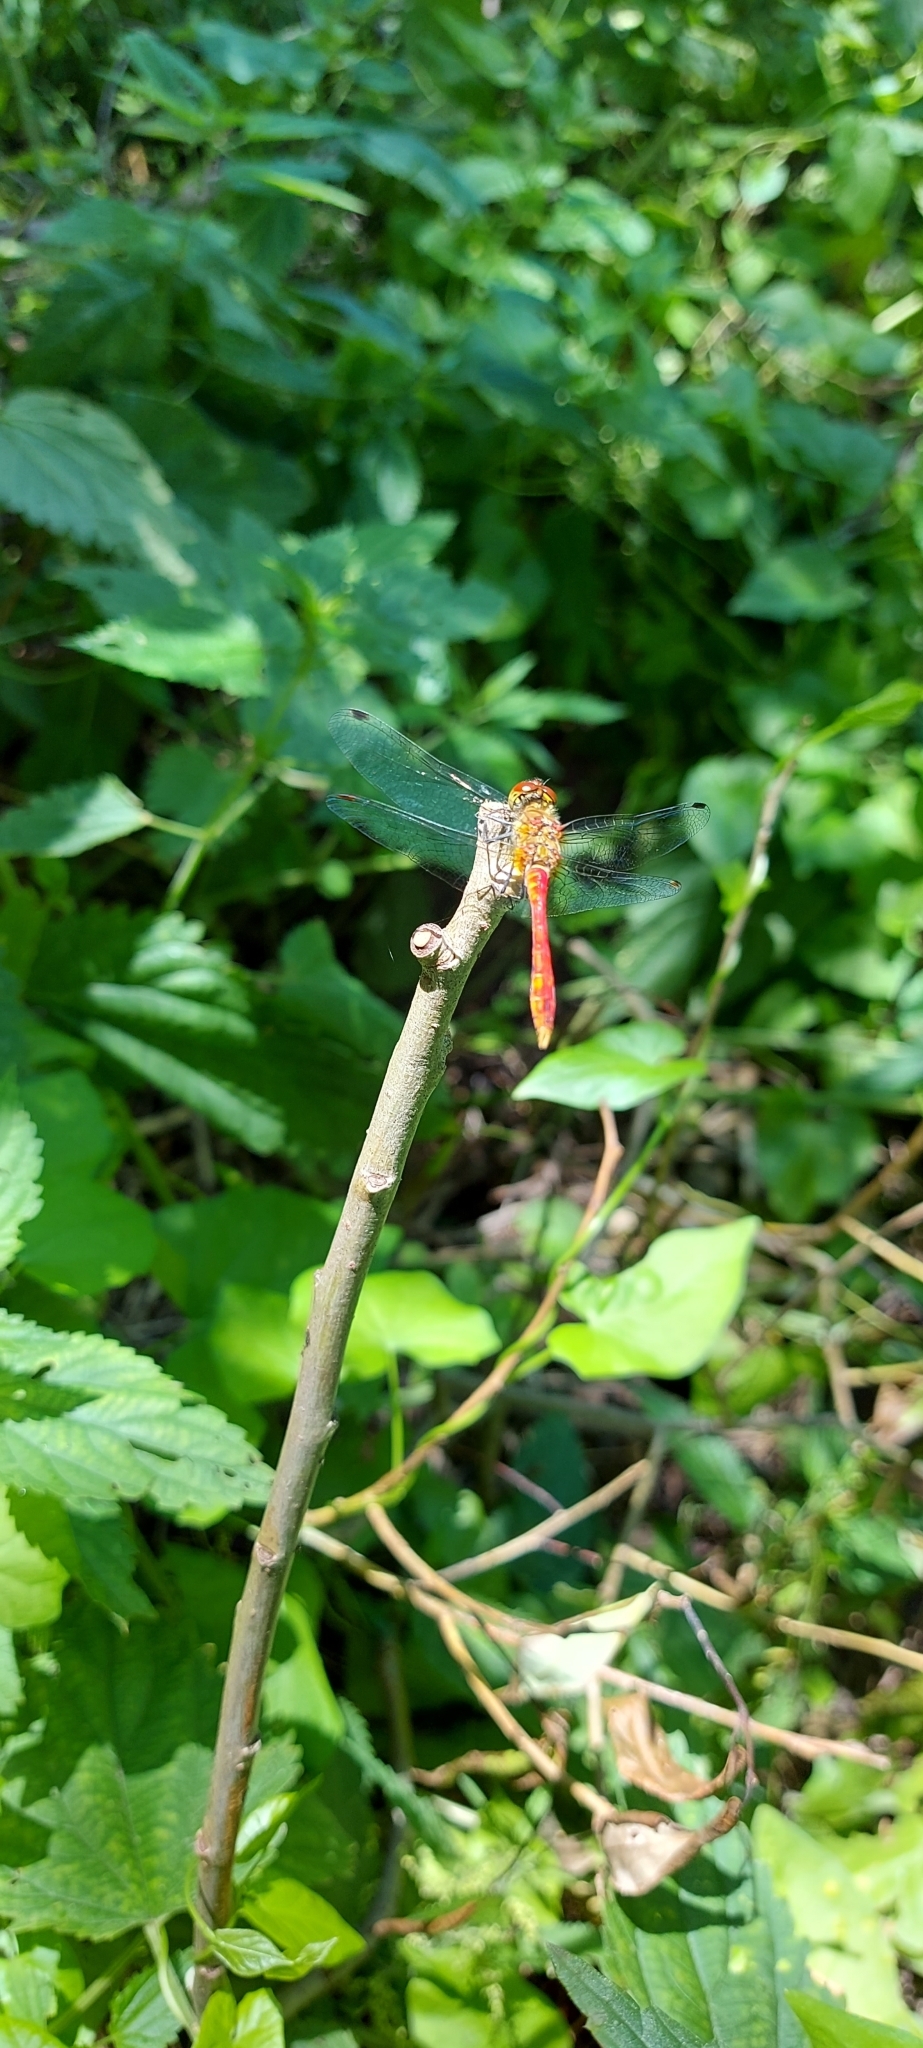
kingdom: Animalia
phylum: Arthropoda
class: Insecta
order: Odonata
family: Libellulidae
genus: Sympetrum
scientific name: Sympetrum sanguineum
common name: Ruddy darter
